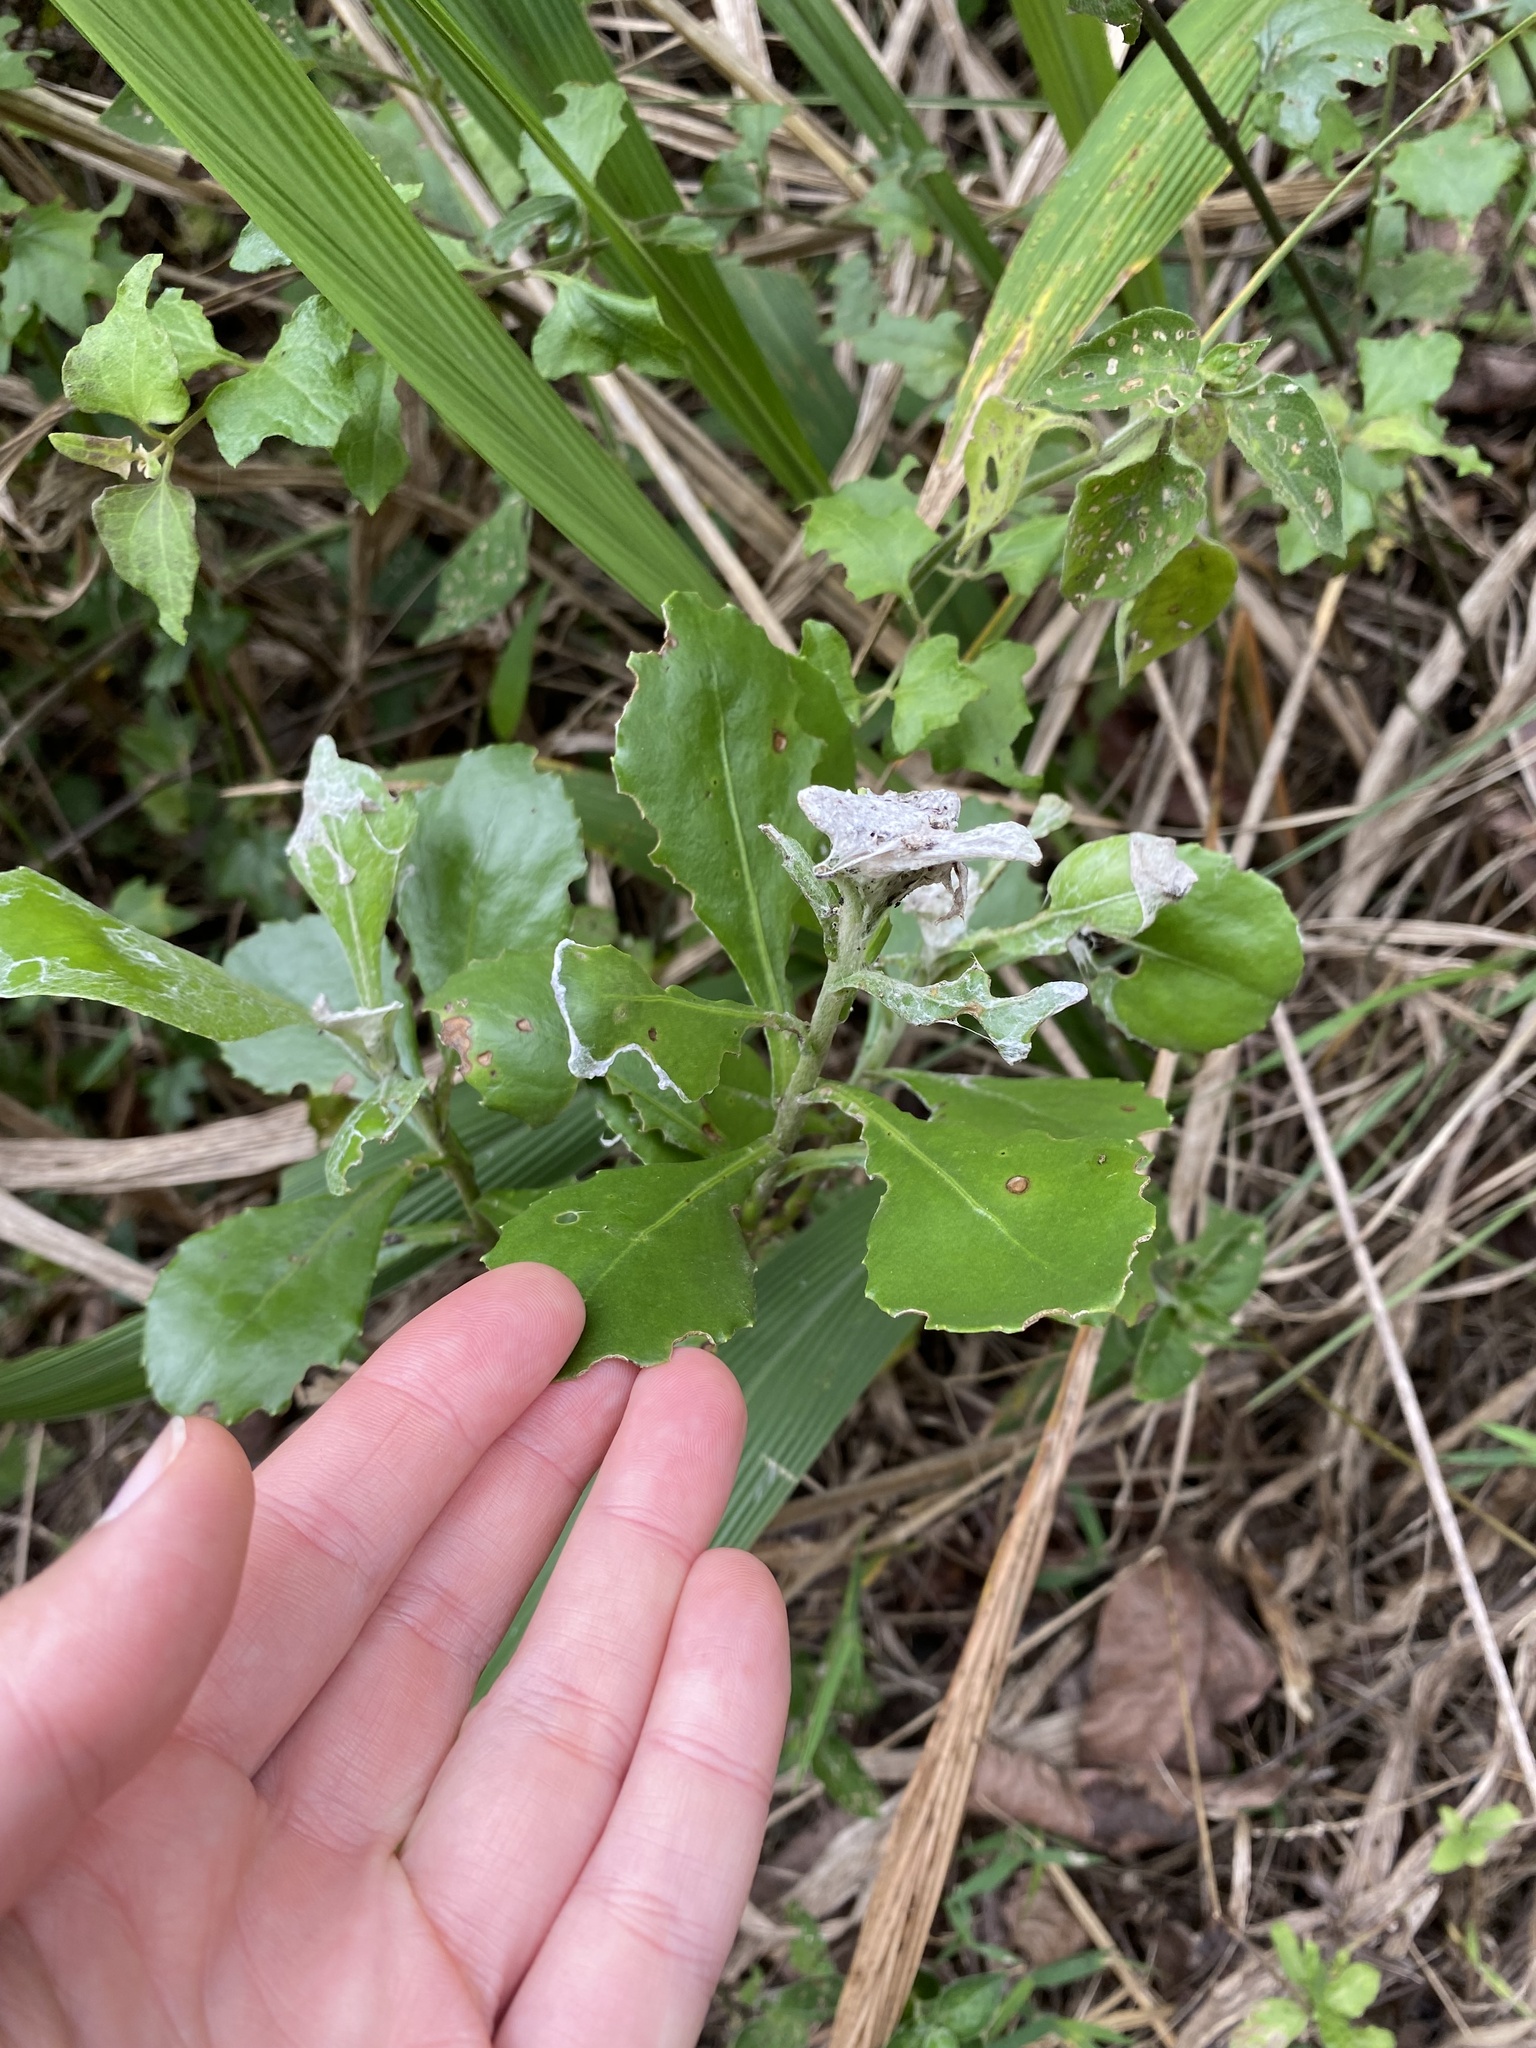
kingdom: Plantae
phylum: Tracheophyta
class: Magnoliopsida
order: Asterales
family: Asteraceae
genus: Osteospermum
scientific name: Osteospermum moniliferum
